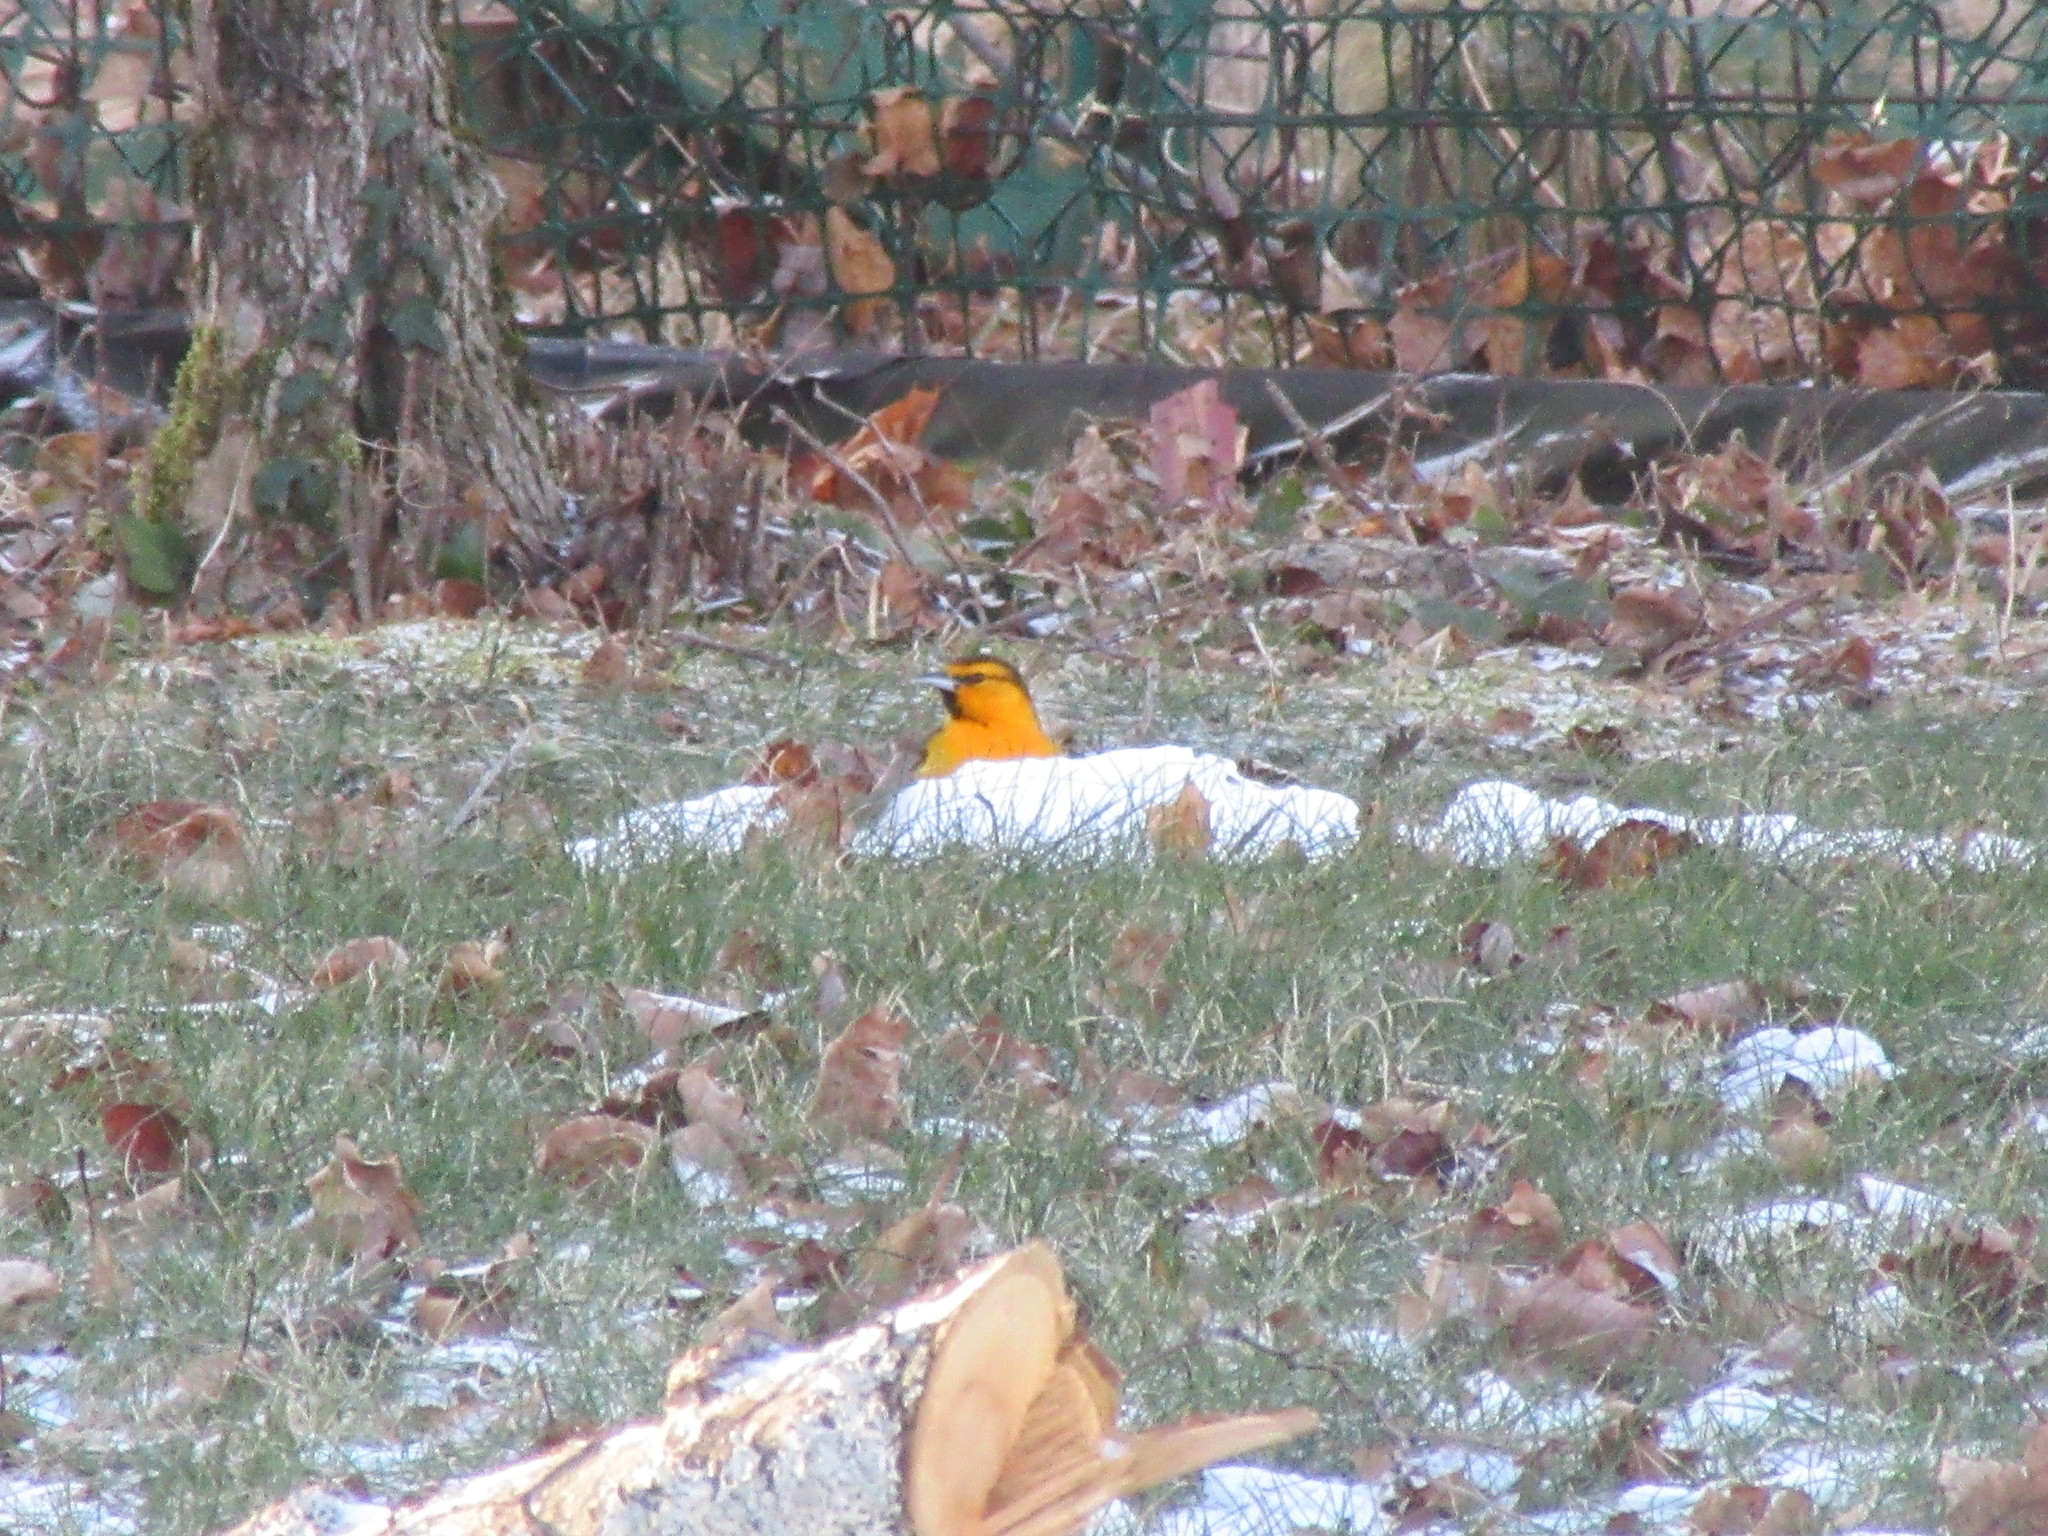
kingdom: Animalia
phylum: Chordata
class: Aves
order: Passeriformes
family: Icteridae
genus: Icterus
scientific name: Icterus bullockii
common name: Bullock's oriole
